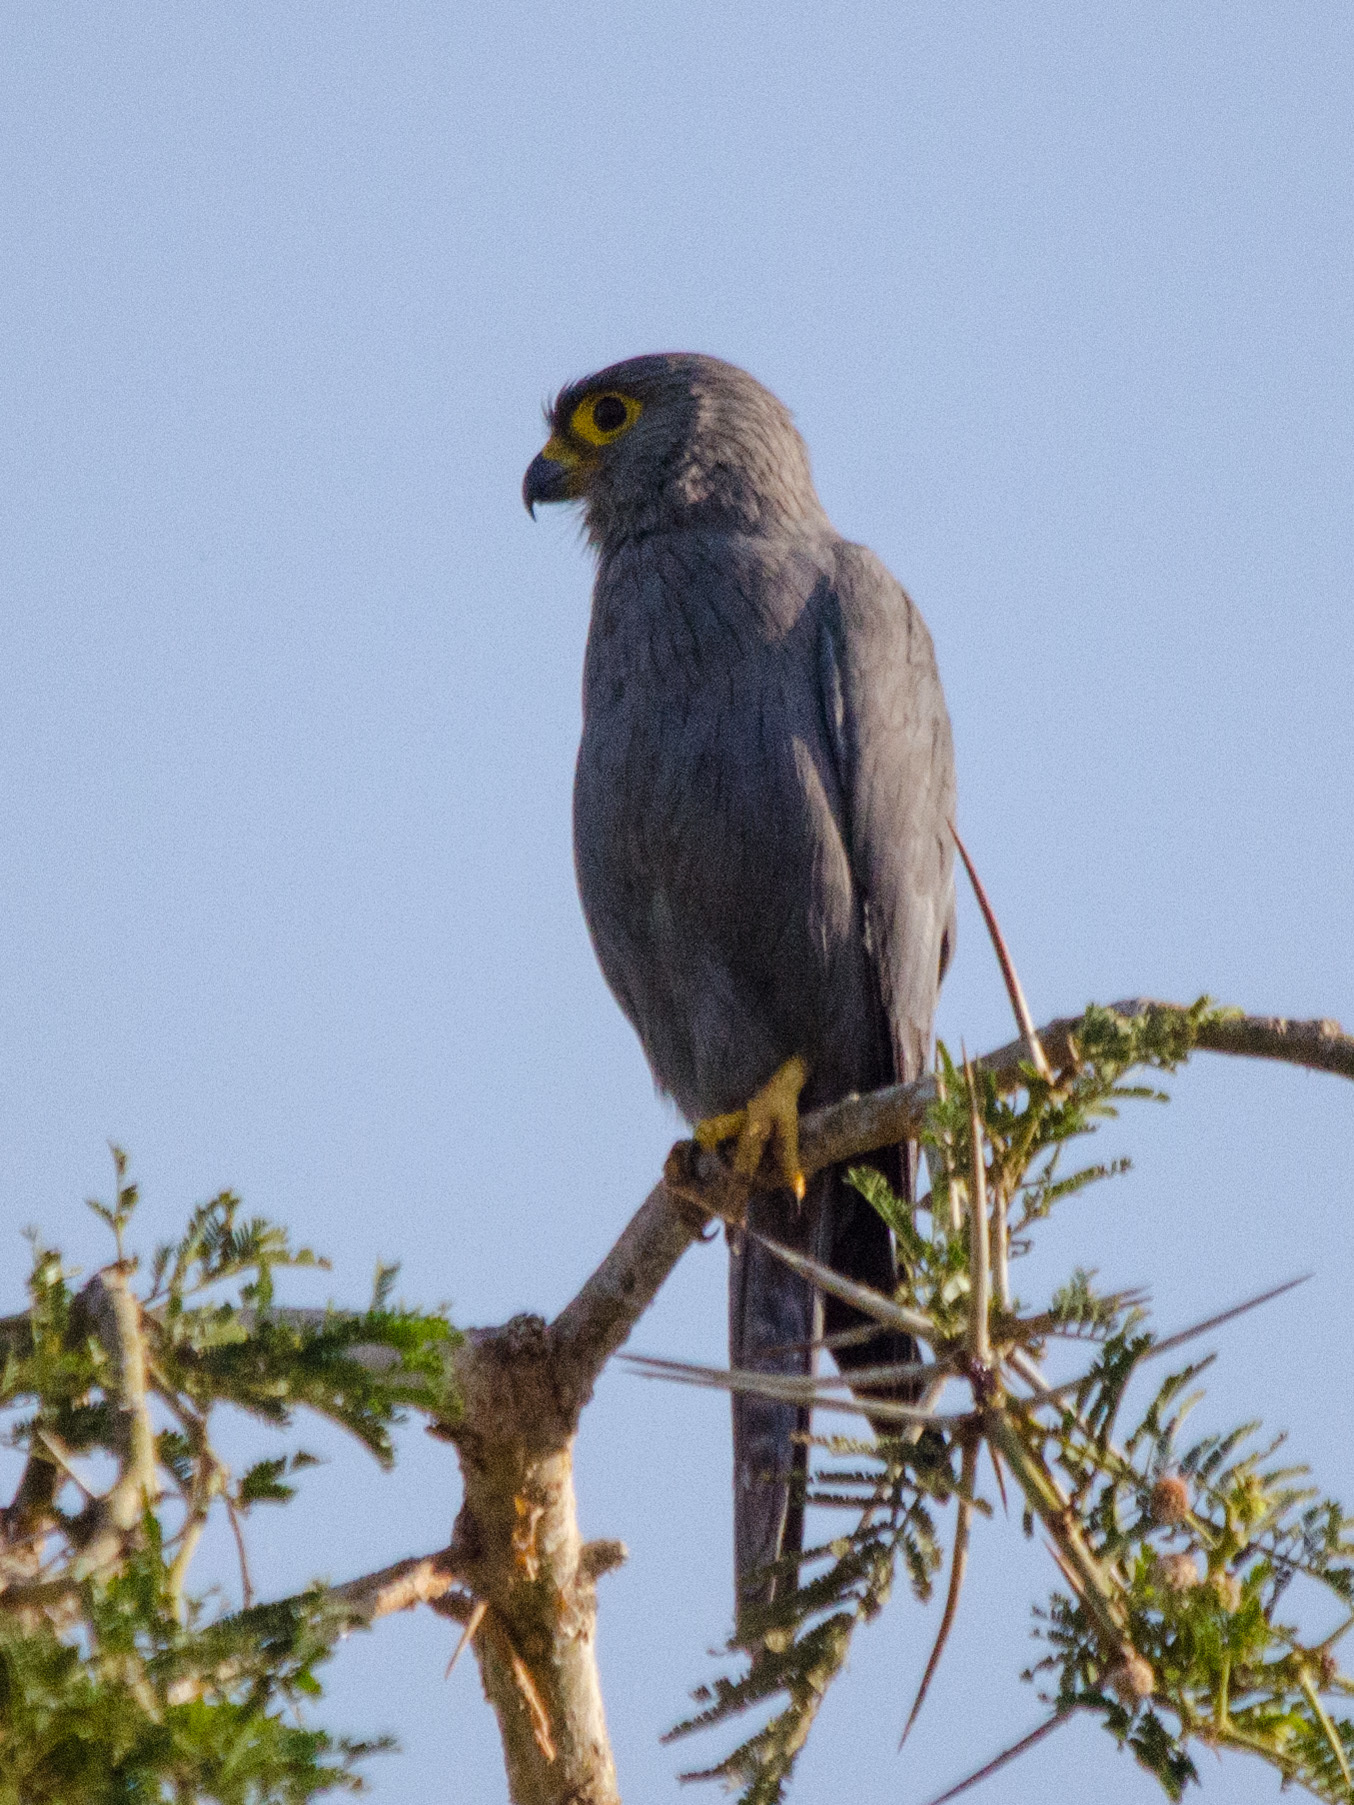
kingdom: Animalia
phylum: Chordata
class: Aves
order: Falconiformes
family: Falconidae
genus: Falco
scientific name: Falco ardosiaceus
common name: Grey kestrel
